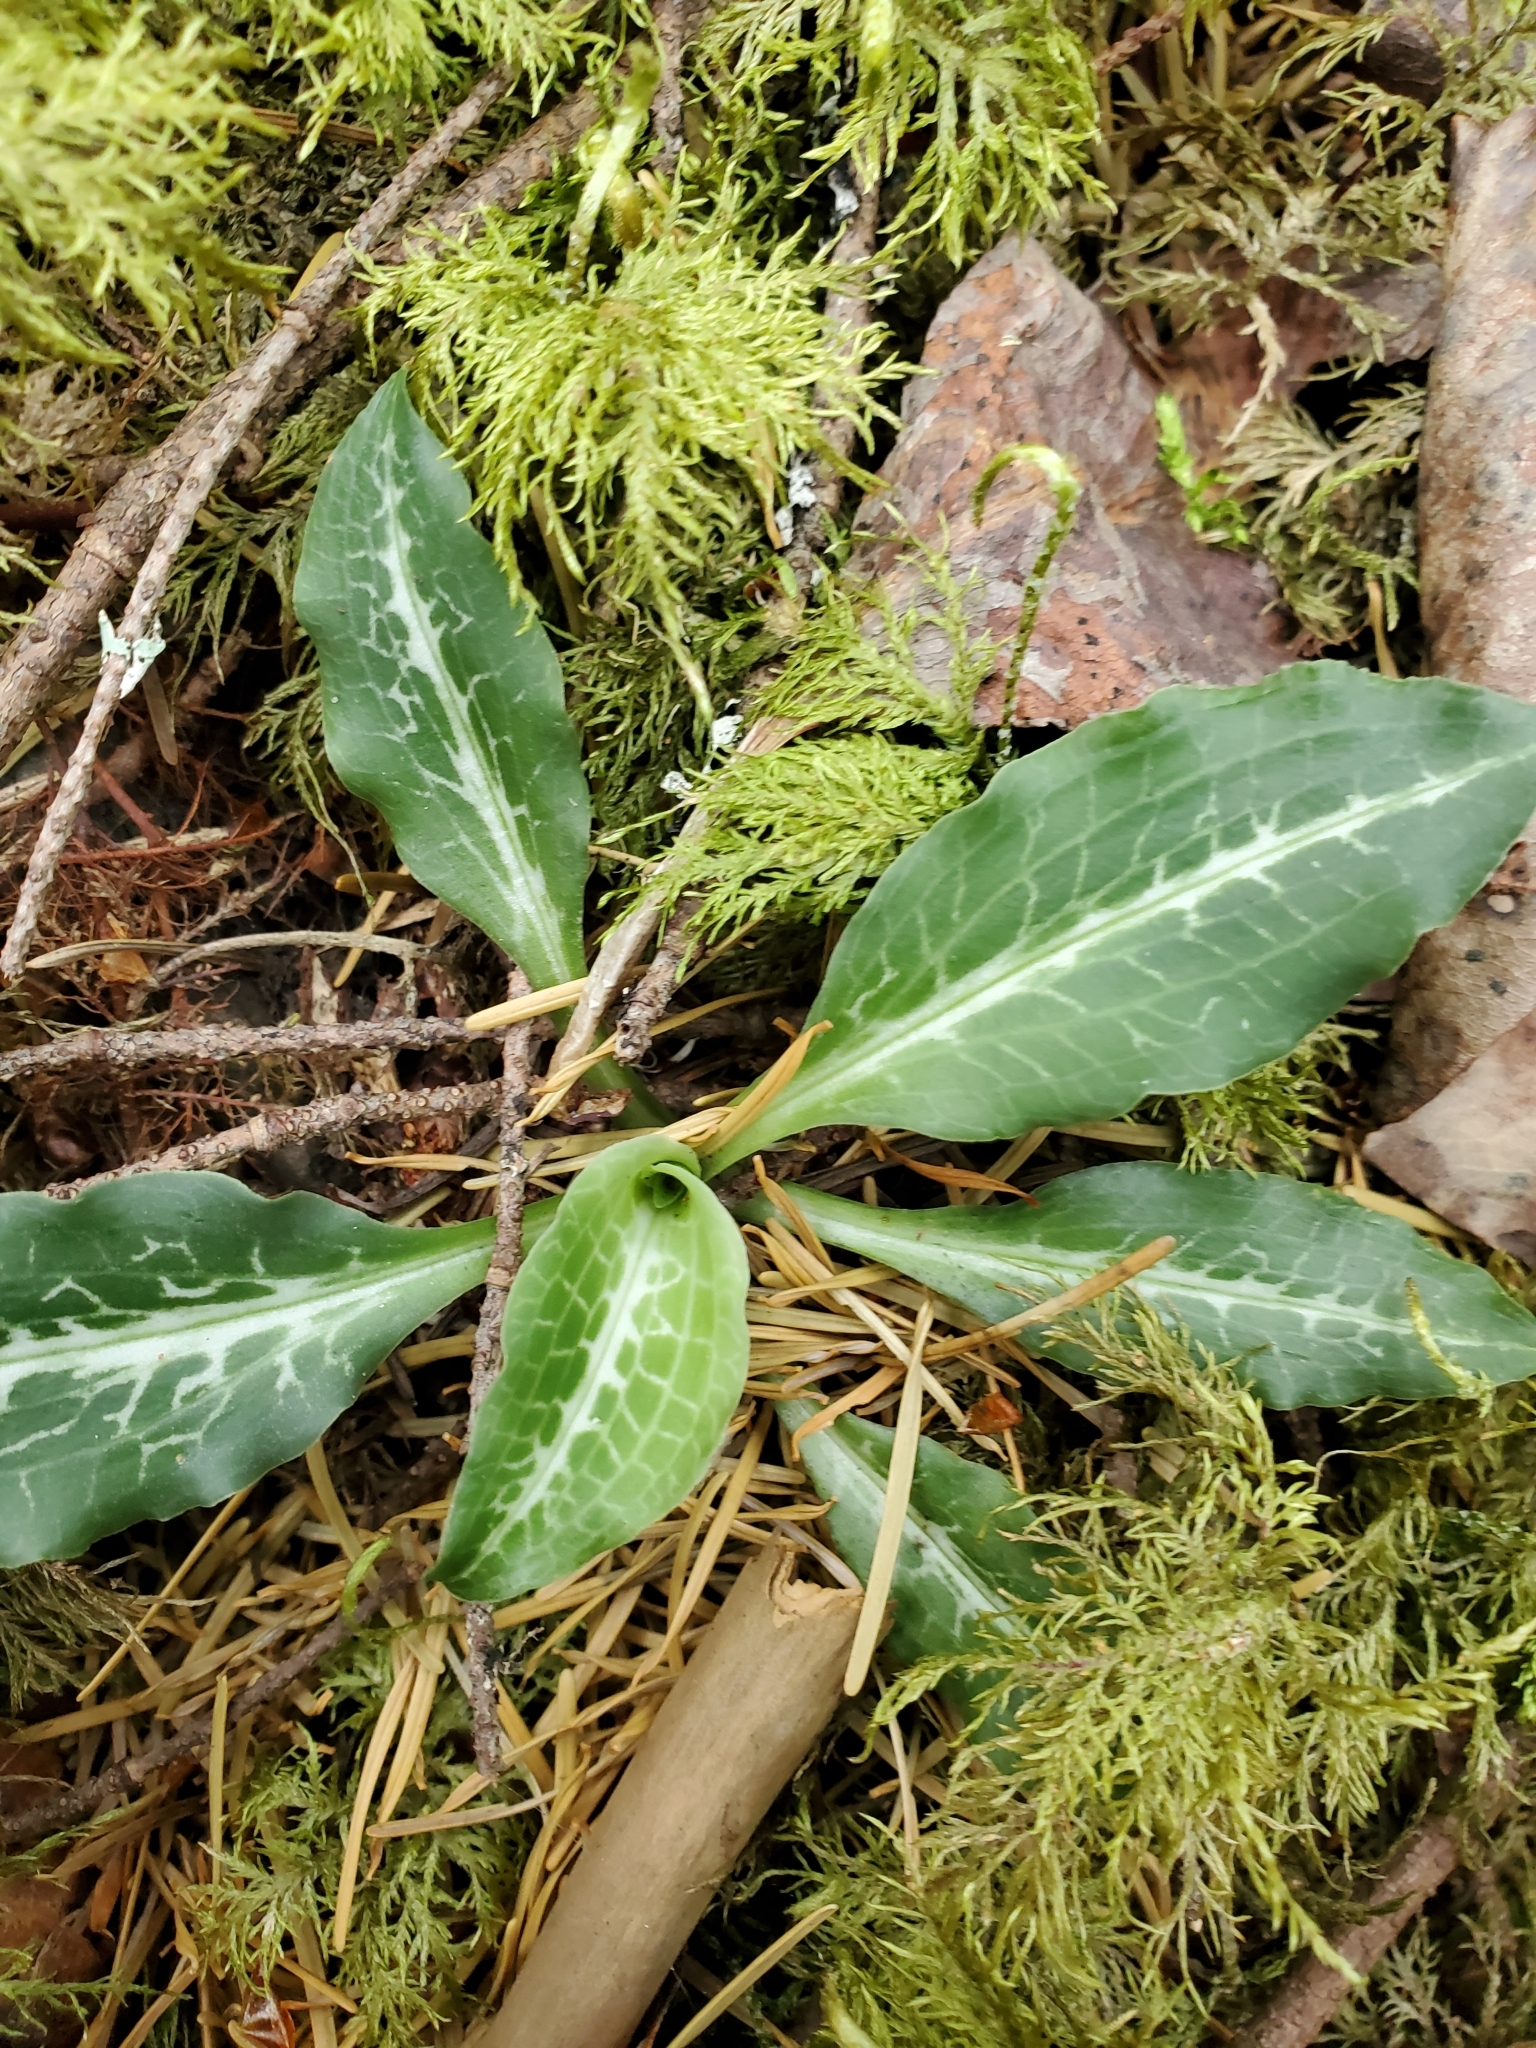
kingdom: Plantae
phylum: Tracheophyta
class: Liliopsida
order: Asparagales
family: Orchidaceae
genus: Goodyera
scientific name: Goodyera oblongifolia
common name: Giant rattlesnake-plantain
